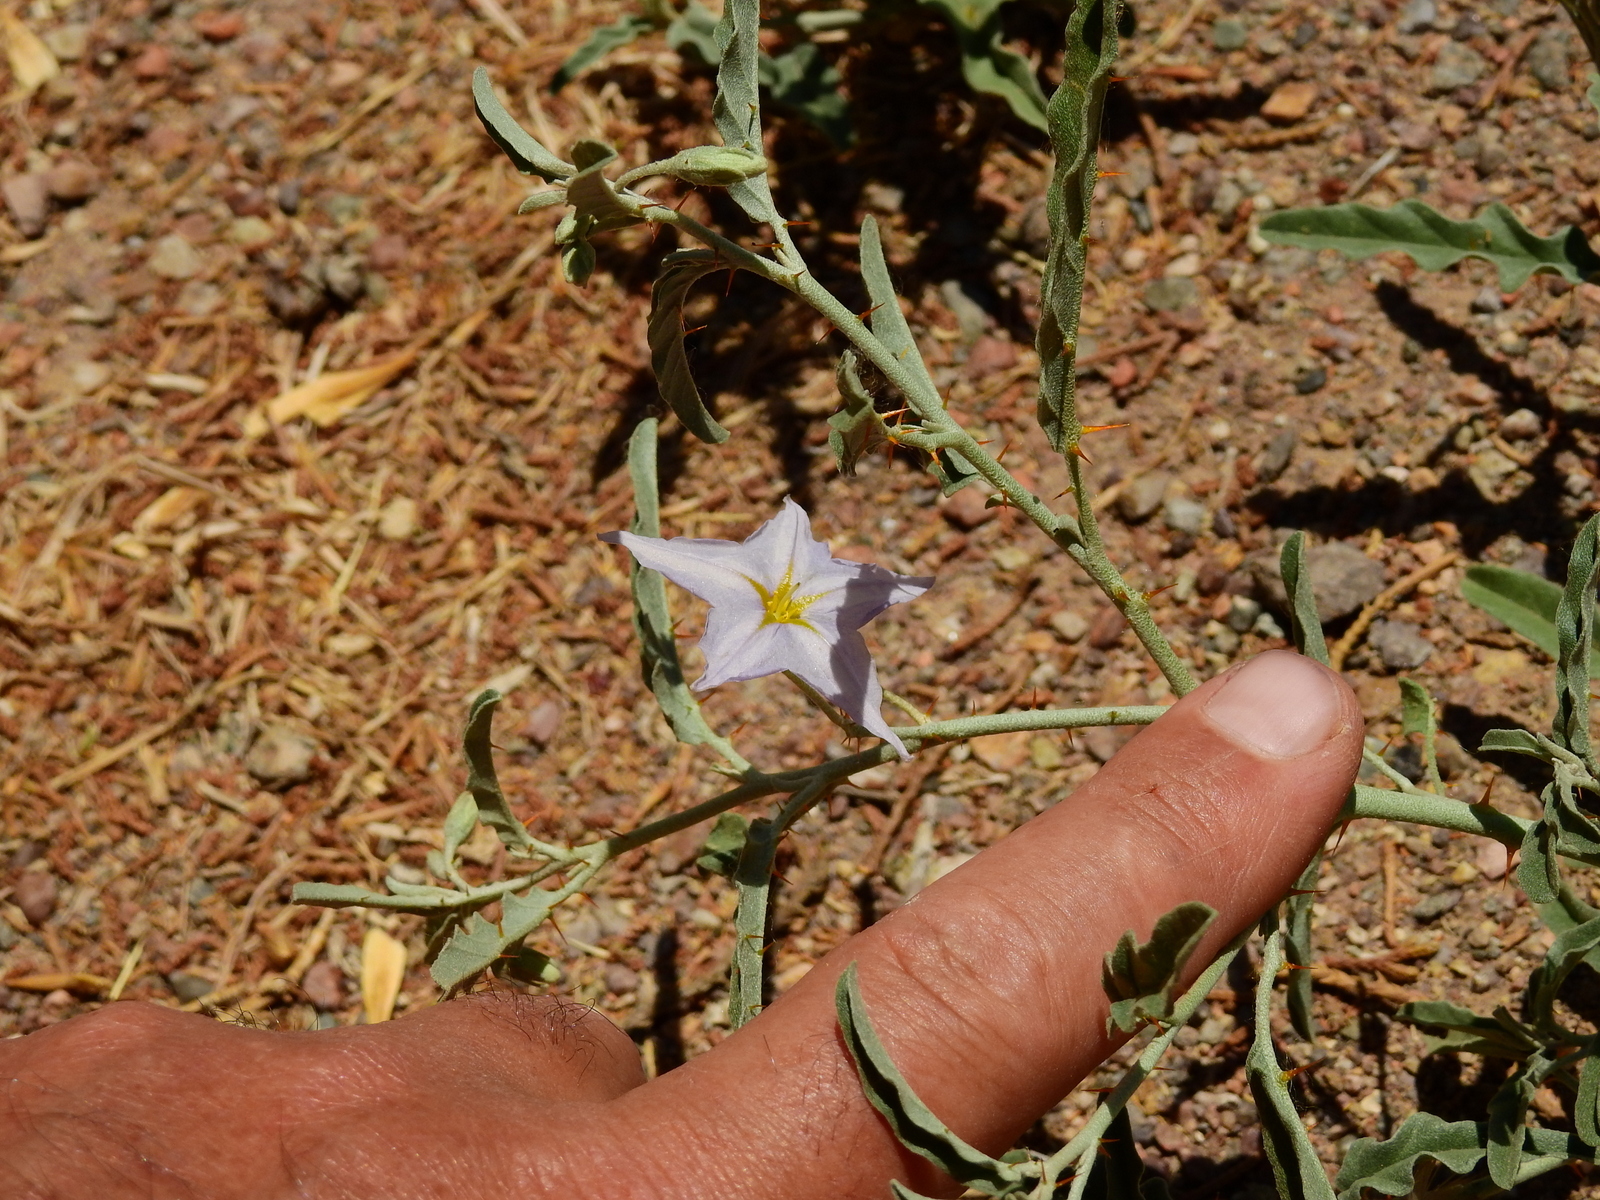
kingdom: Plantae
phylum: Tracheophyta
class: Magnoliopsida
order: Solanales
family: Solanaceae
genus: Solanum
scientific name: Solanum elaeagnifolium
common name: Silverleaf nightshade
